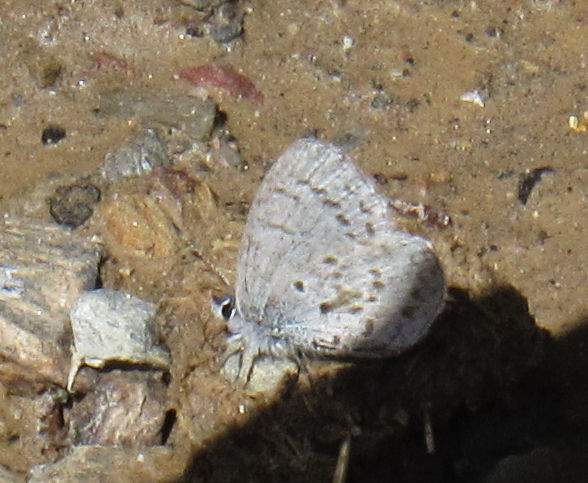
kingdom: Animalia
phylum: Arthropoda
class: Insecta
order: Lepidoptera
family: Lycaenidae
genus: Celastrina
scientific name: Celastrina asheri
